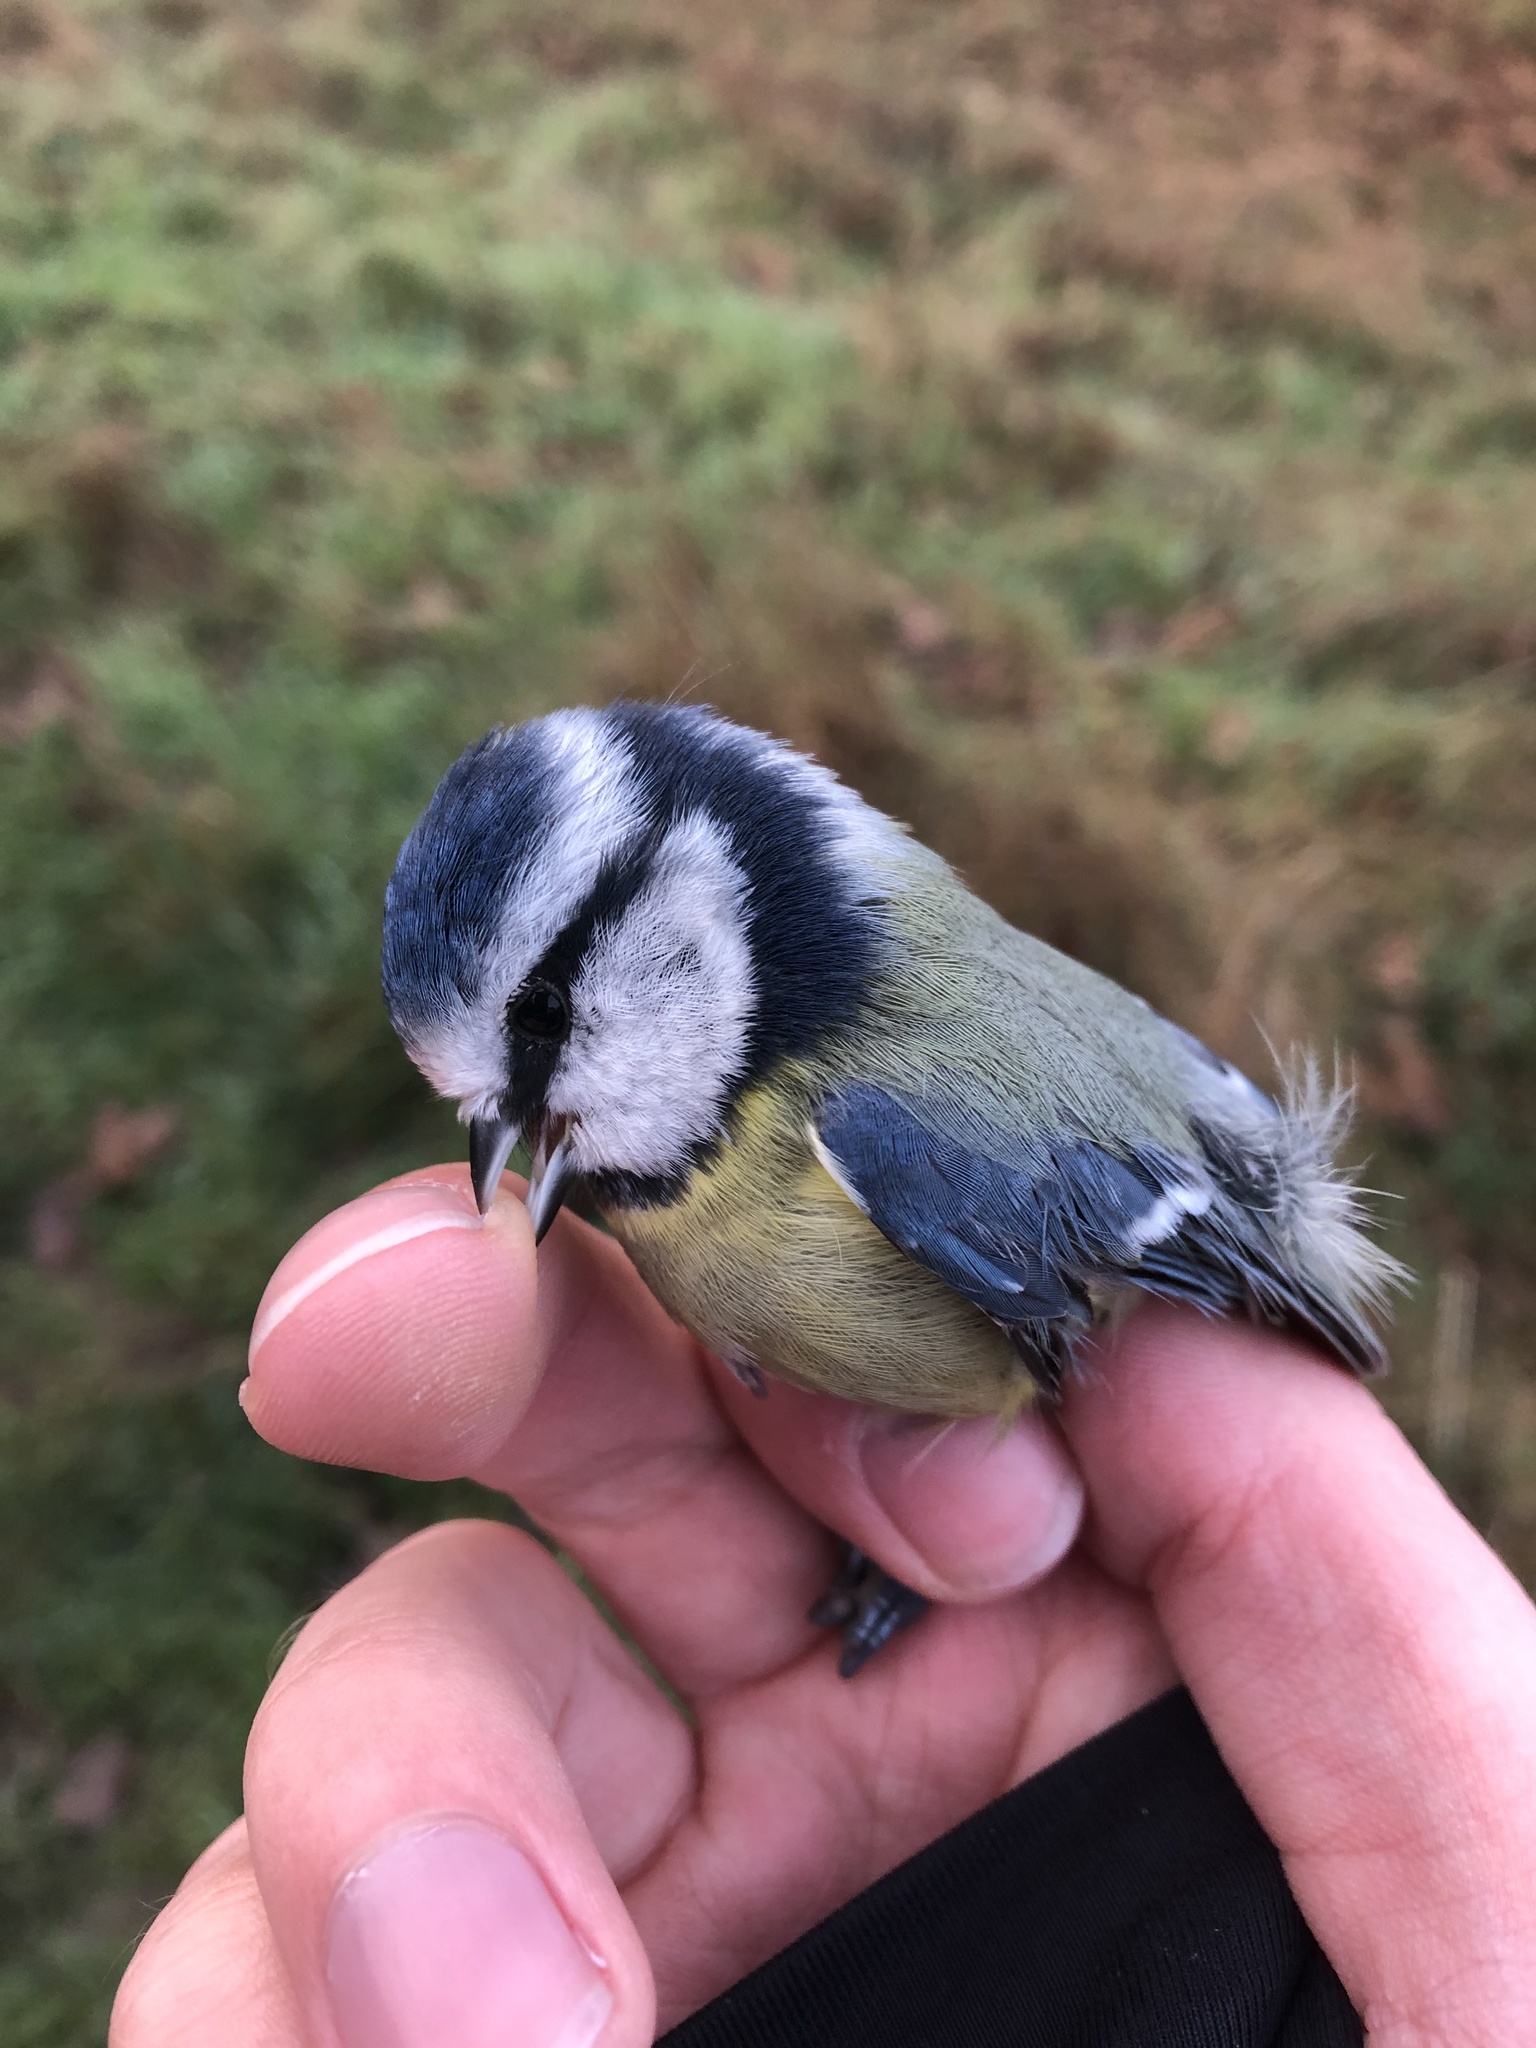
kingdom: Animalia
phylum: Chordata
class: Aves
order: Passeriformes
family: Paridae
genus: Cyanistes
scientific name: Cyanistes caeruleus
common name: Eurasian blue tit
